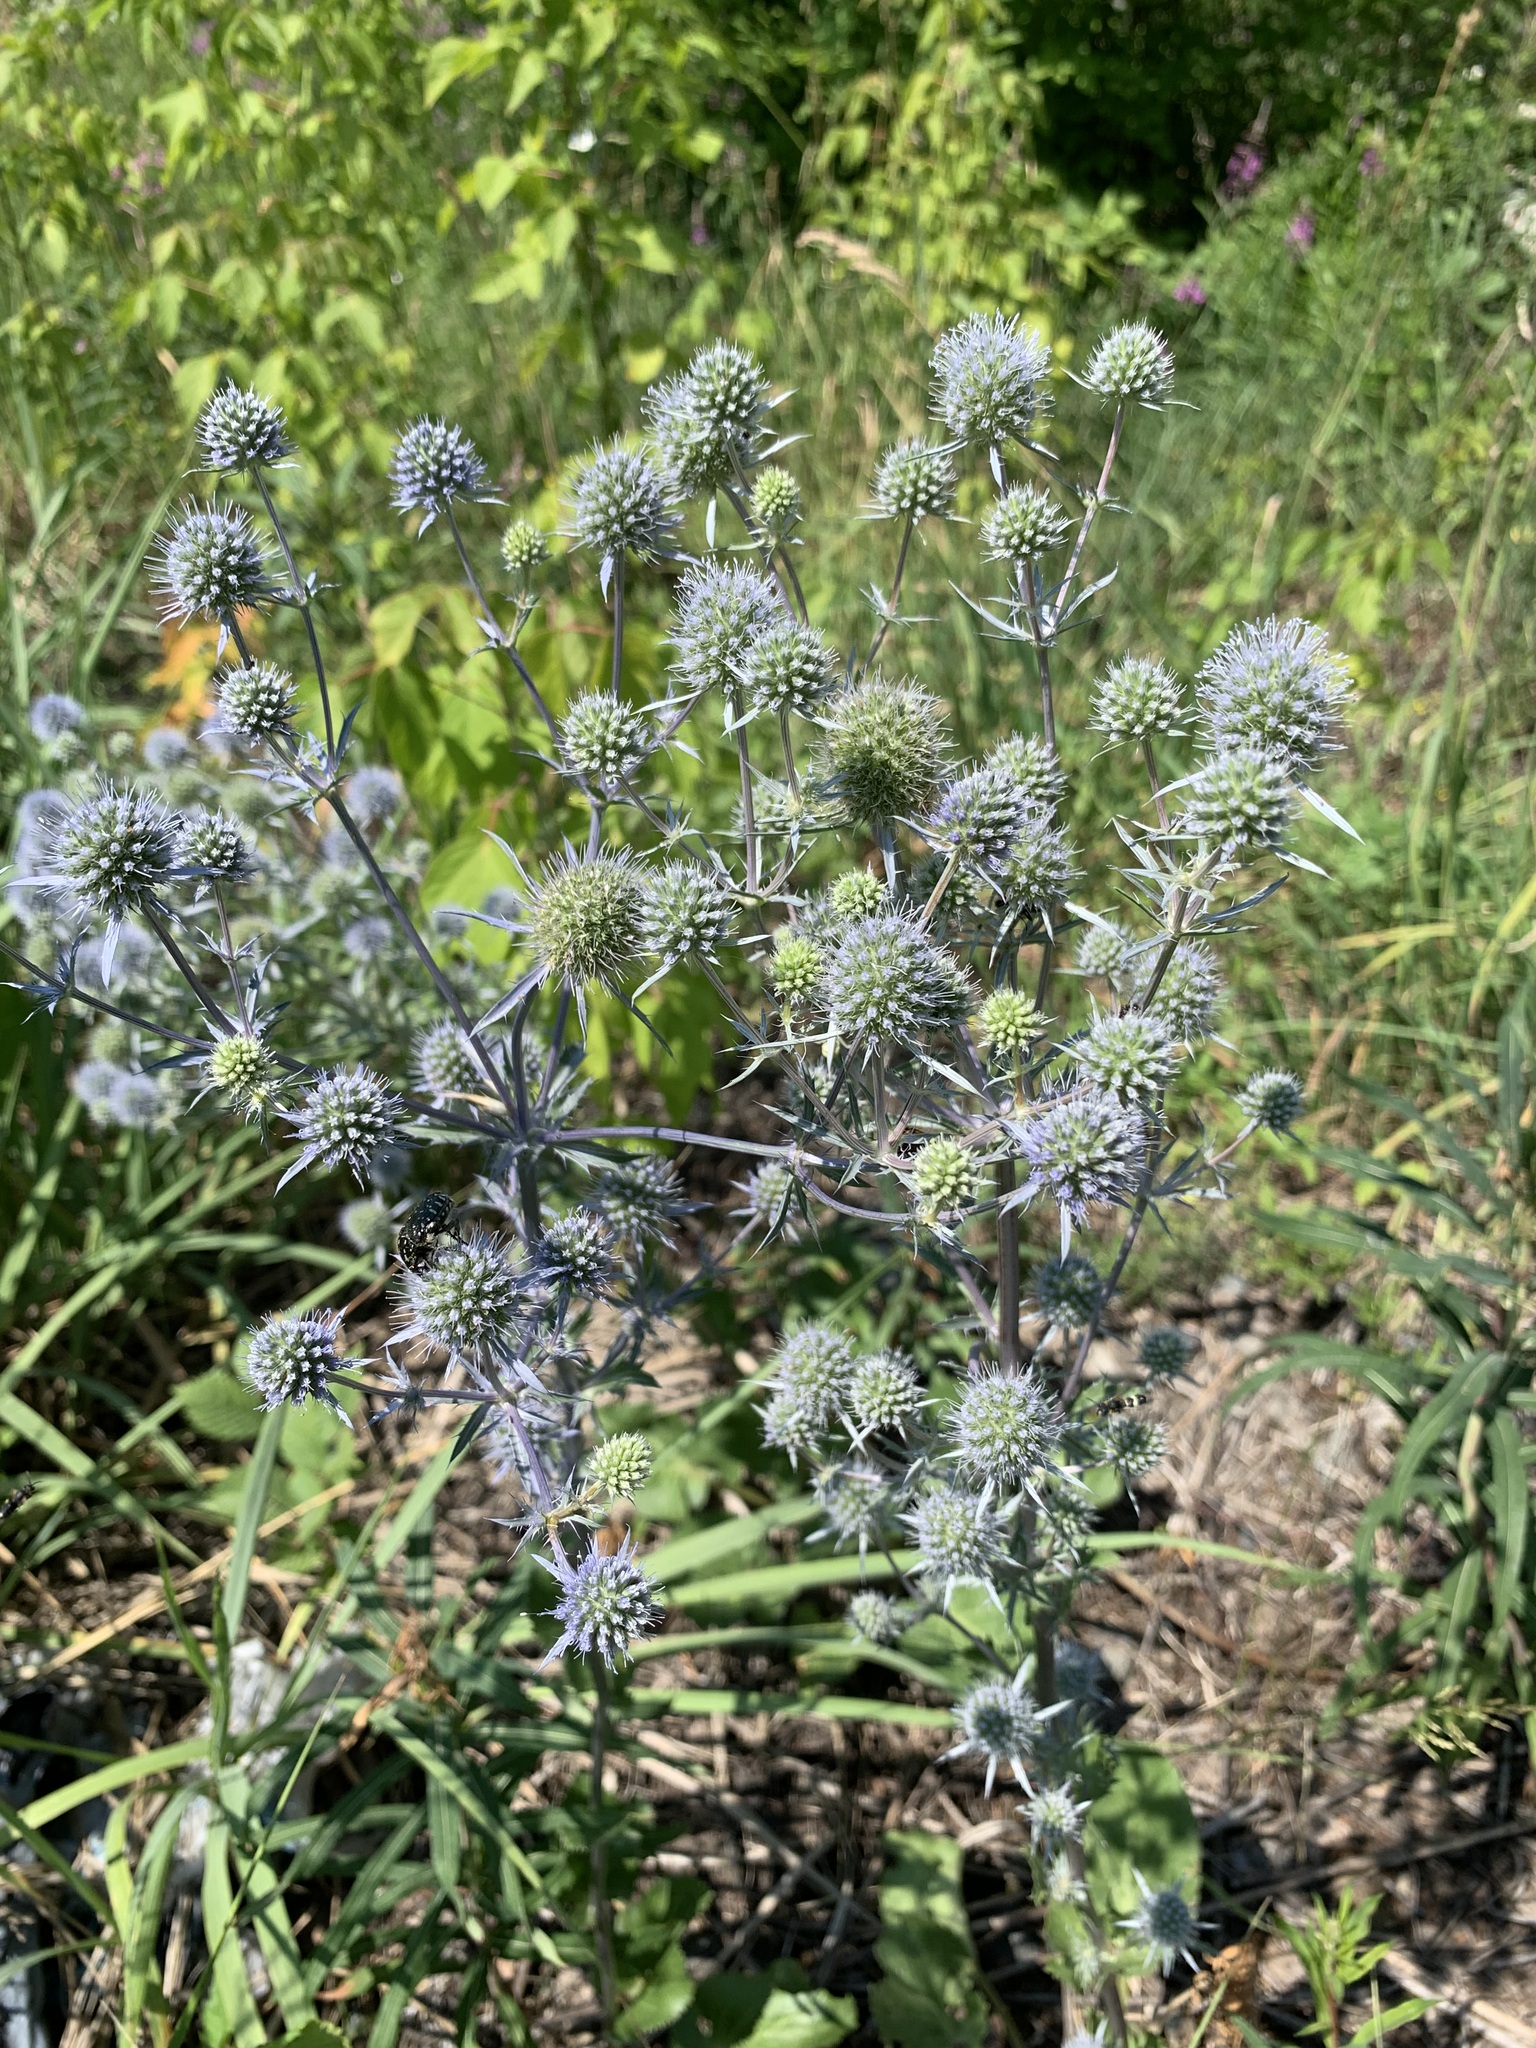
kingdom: Plantae
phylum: Tracheophyta
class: Magnoliopsida
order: Apiales
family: Apiaceae
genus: Eryngium
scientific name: Eryngium planum
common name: Blue eryngo
